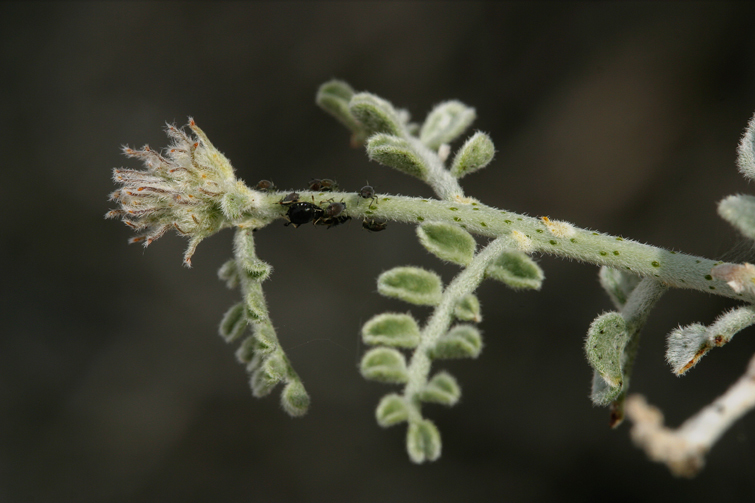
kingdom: Plantae
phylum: Tracheophyta
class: Magnoliopsida
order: Fabales
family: Fabaceae
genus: Psorothamnus
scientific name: Psorothamnus polydenius
